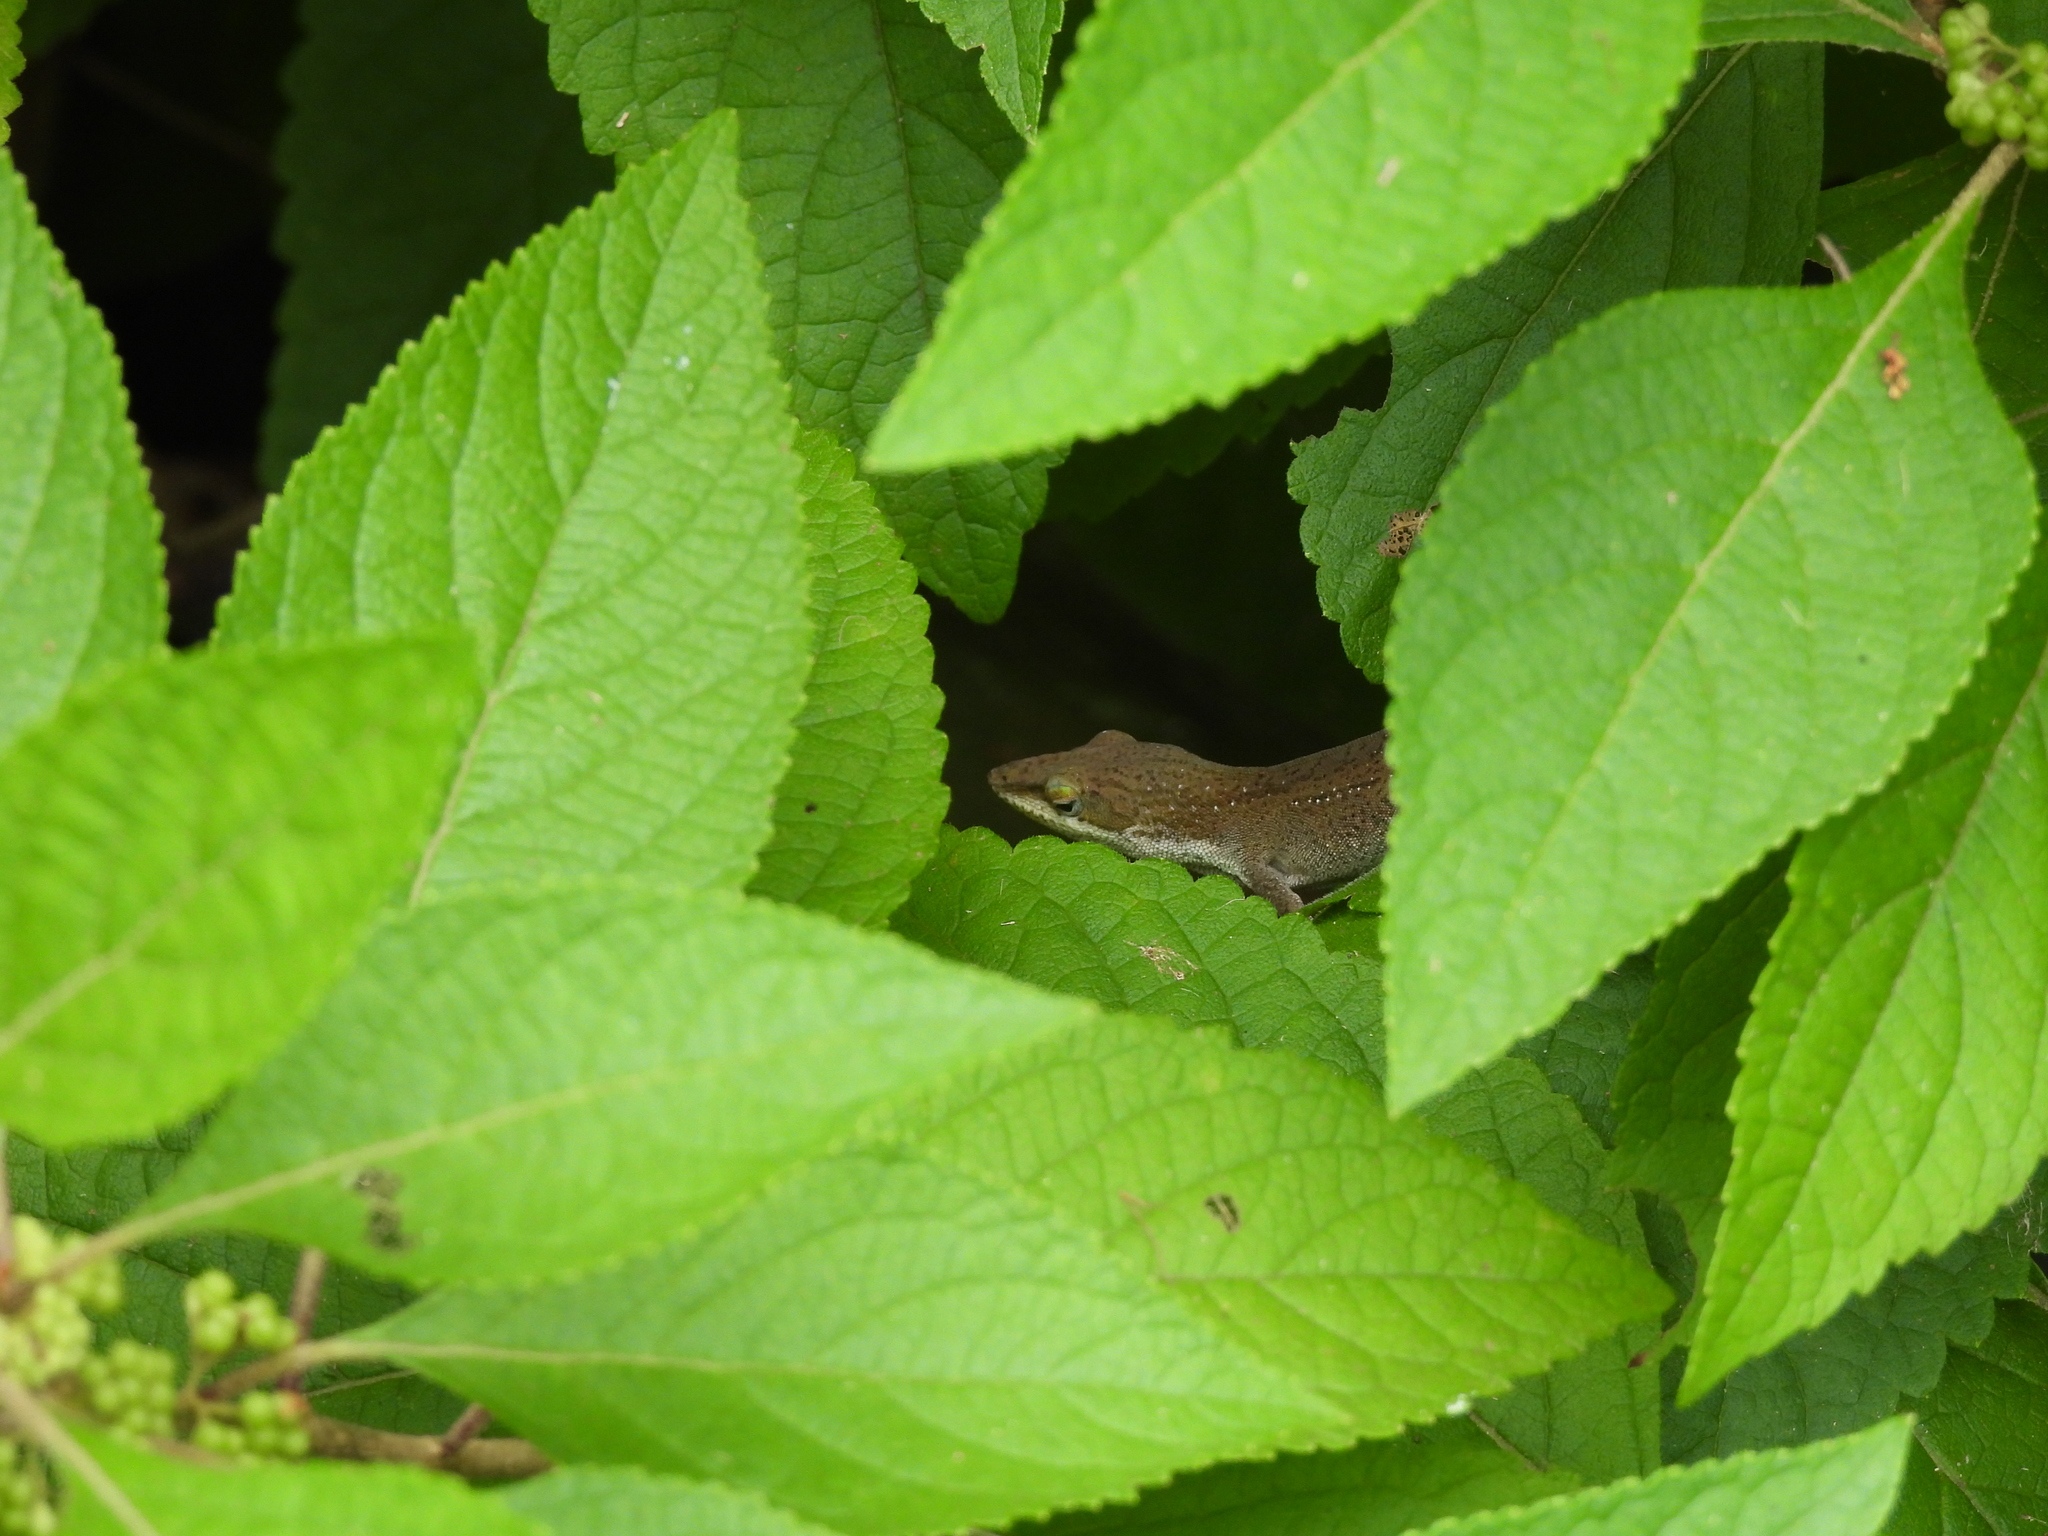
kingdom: Animalia
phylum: Chordata
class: Squamata
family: Dactyloidae
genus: Anolis
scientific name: Anolis carolinensis
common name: Green anole
